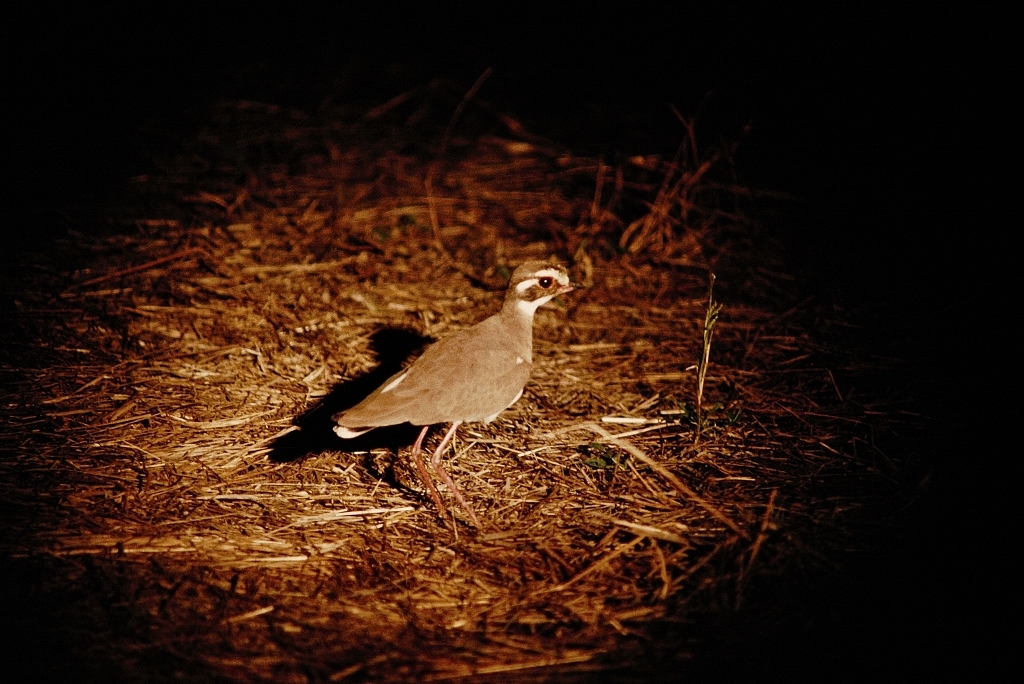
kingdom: Animalia
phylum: Chordata
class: Aves
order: Charadriiformes
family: Glareolidae
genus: Rhinoptilus
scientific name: Rhinoptilus chalcopterus
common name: Bronze-winged courser
